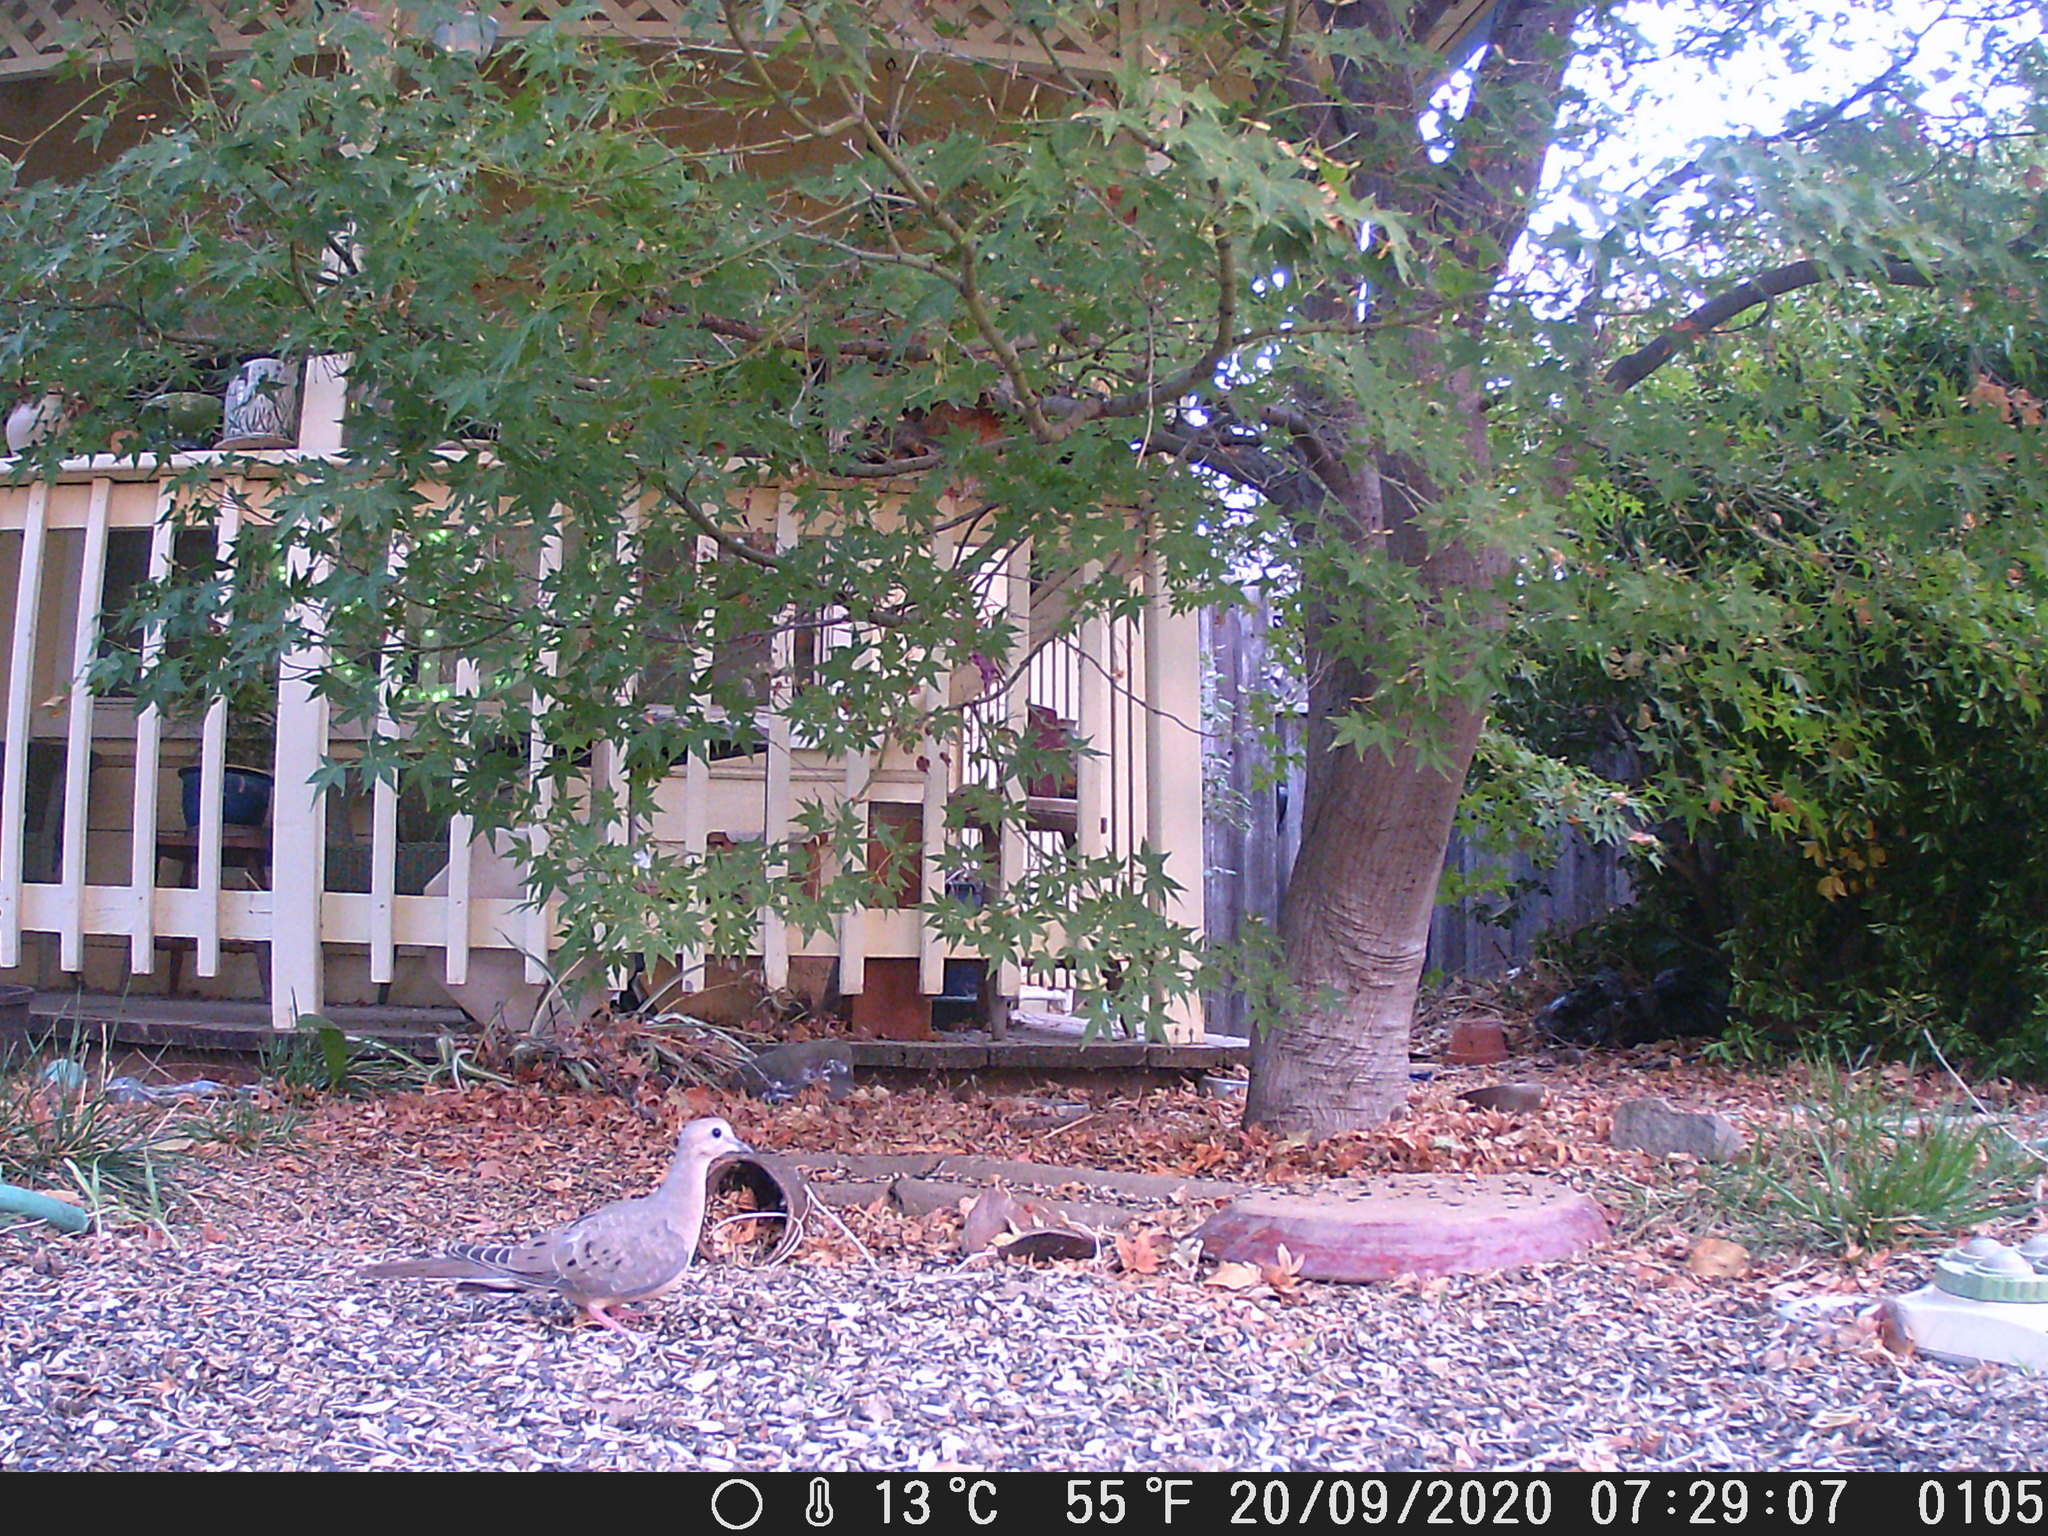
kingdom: Animalia
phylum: Chordata
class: Aves
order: Columbiformes
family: Columbidae
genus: Zenaida
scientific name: Zenaida macroura
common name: Mourning dove
